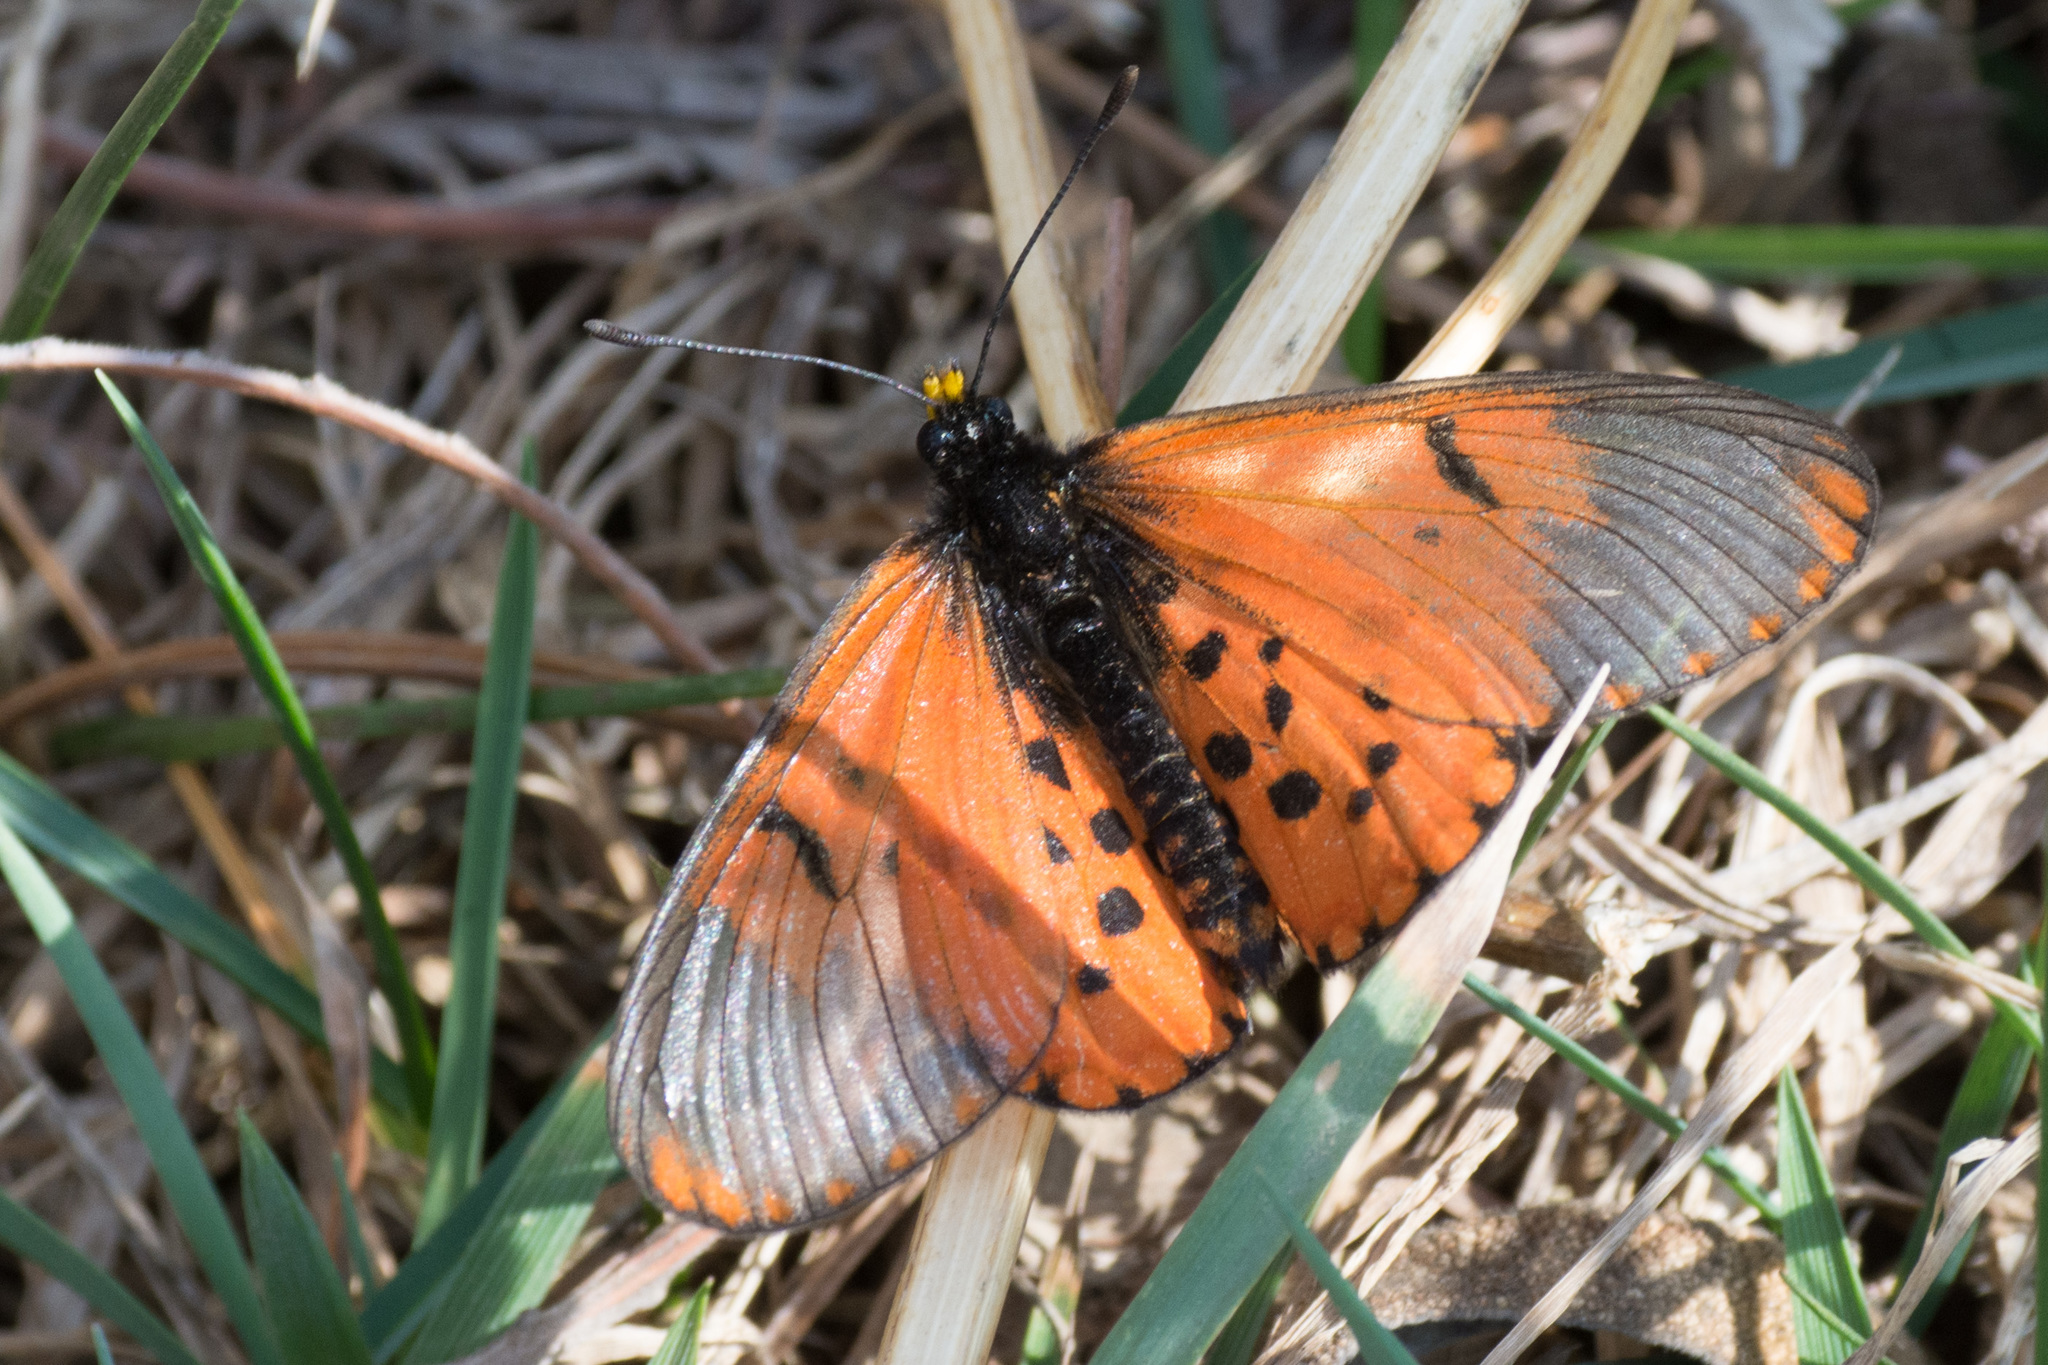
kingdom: Animalia
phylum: Arthropoda
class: Insecta
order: Lepidoptera
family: Nymphalidae
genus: Acraea
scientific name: Acraea horta
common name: Garden acraea
